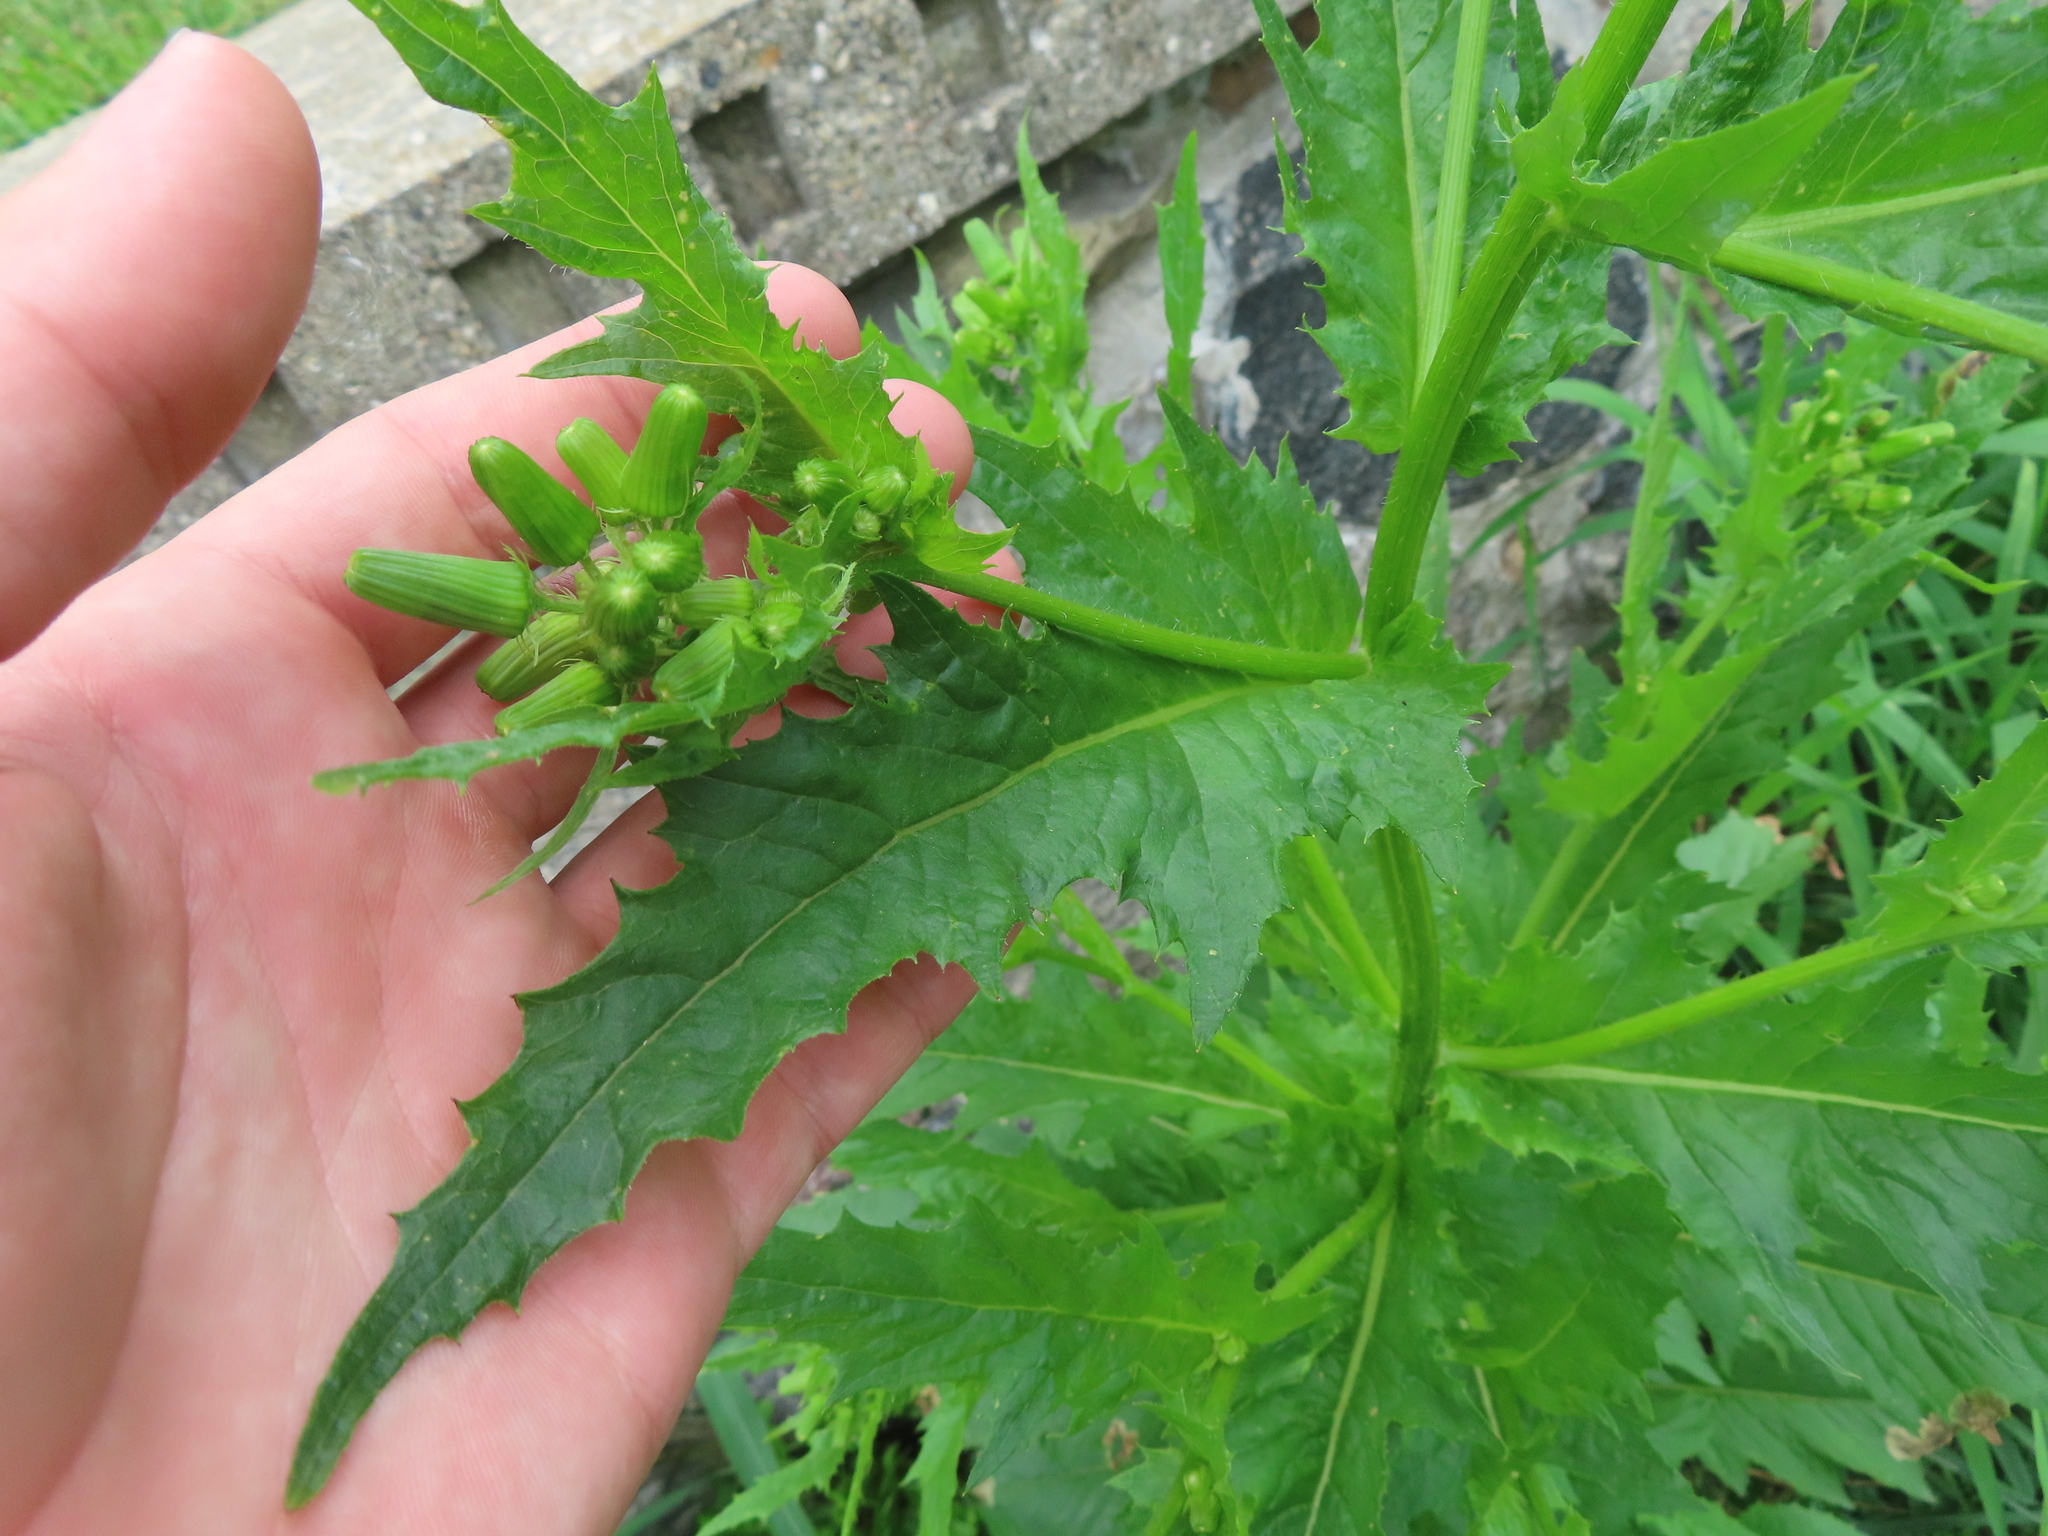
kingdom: Plantae
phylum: Tracheophyta
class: Magnoliopsida
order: Asterales
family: Asteraceae
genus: Erechtites
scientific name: Erechtites hieraciifolius
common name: American burnweed
